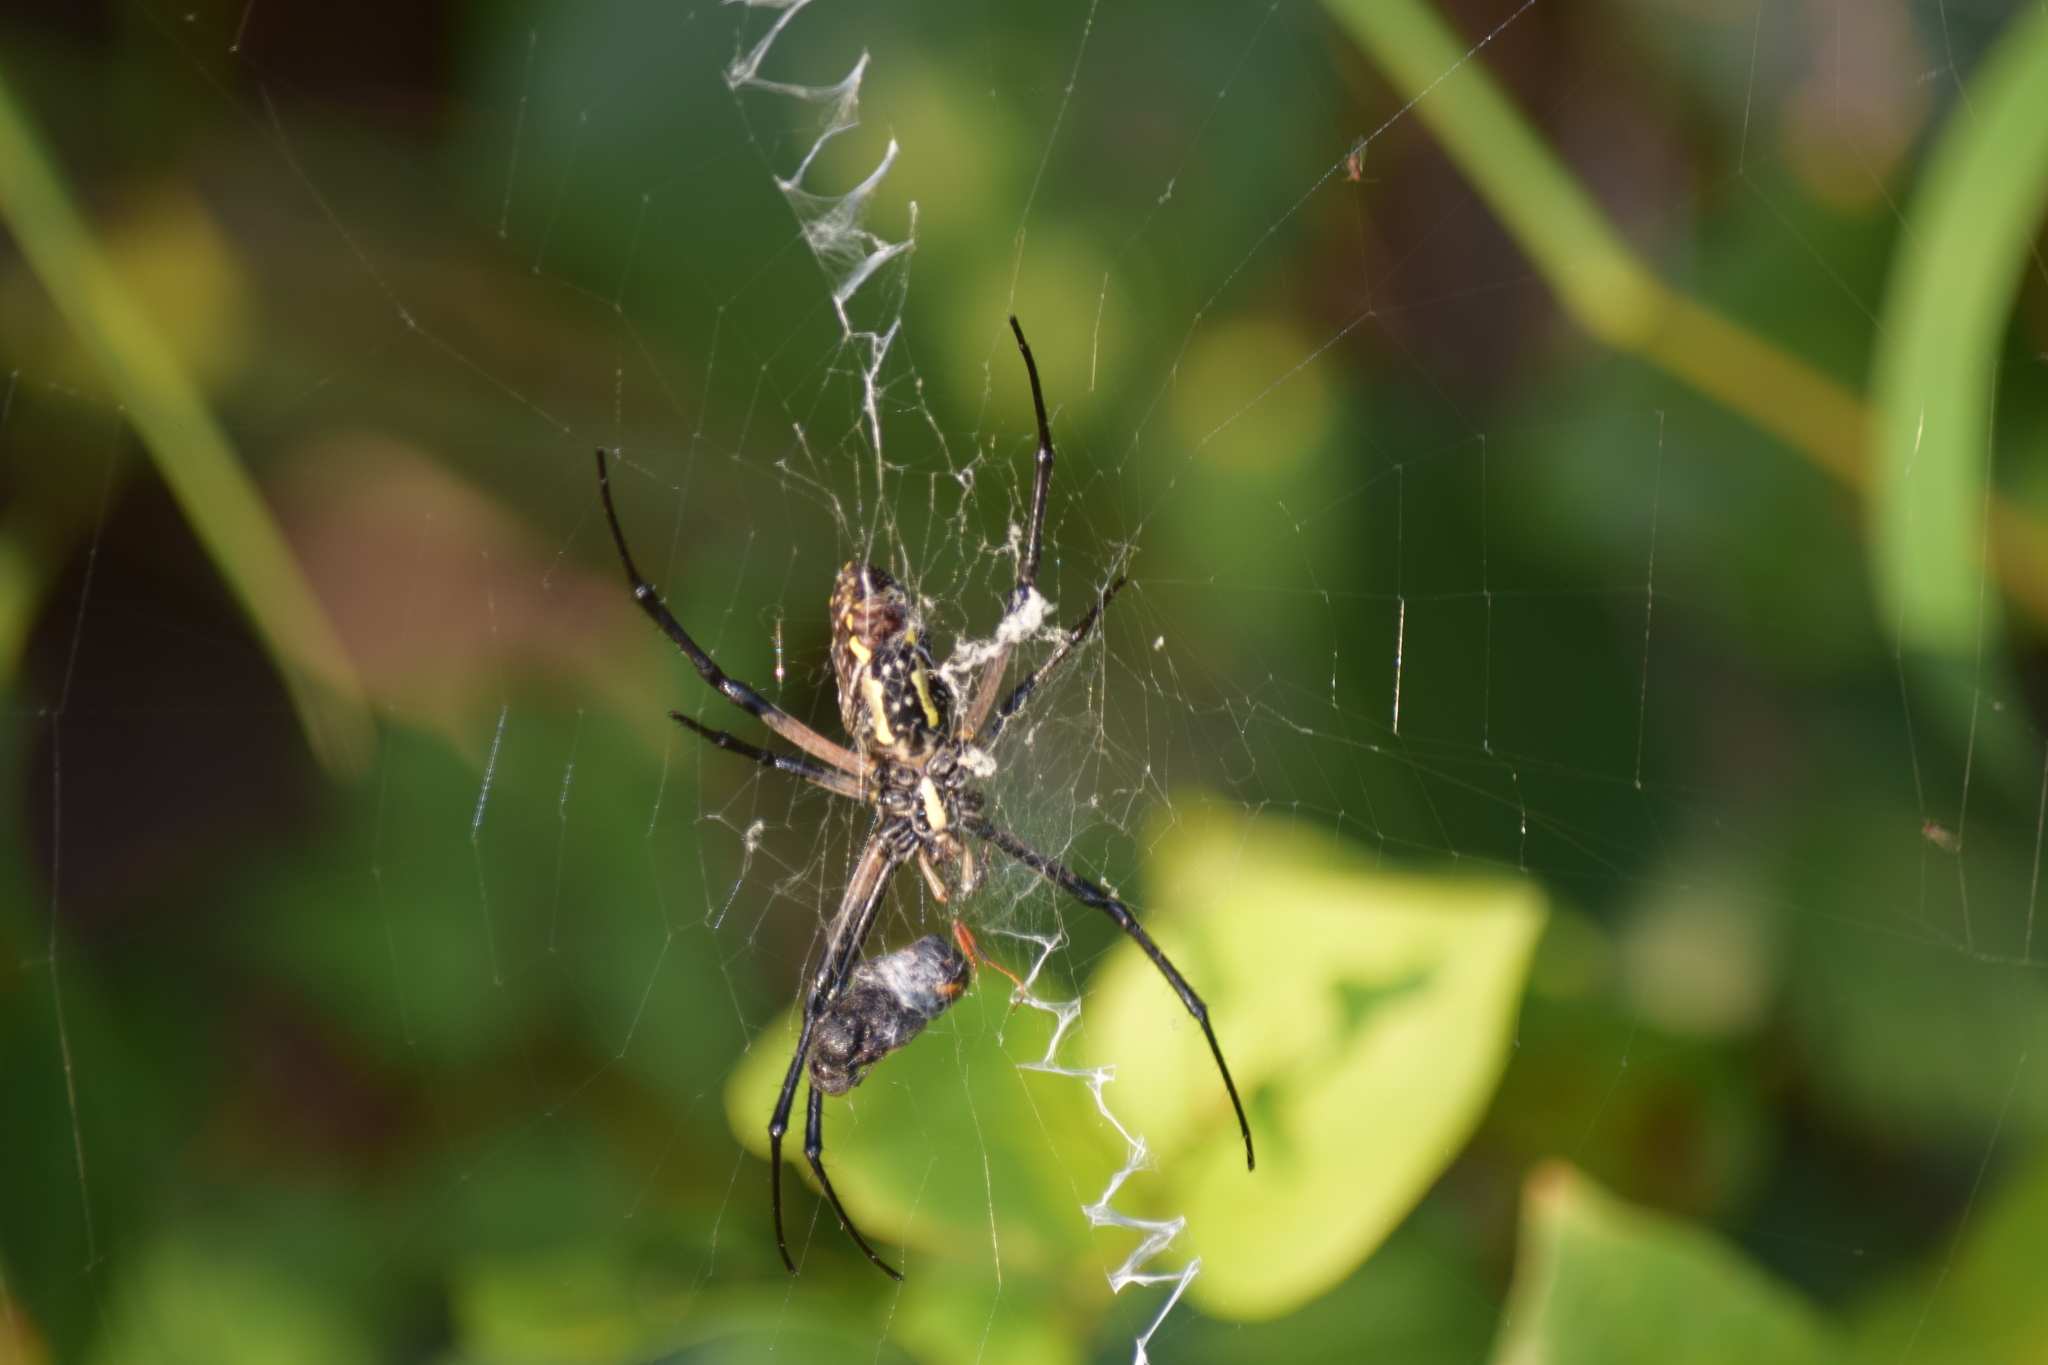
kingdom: Animalia
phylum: Arthropoda
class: Arachnida
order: Araneae
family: Araneidae
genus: Argiope
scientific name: Argiope aurantia
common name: Orb weavers
